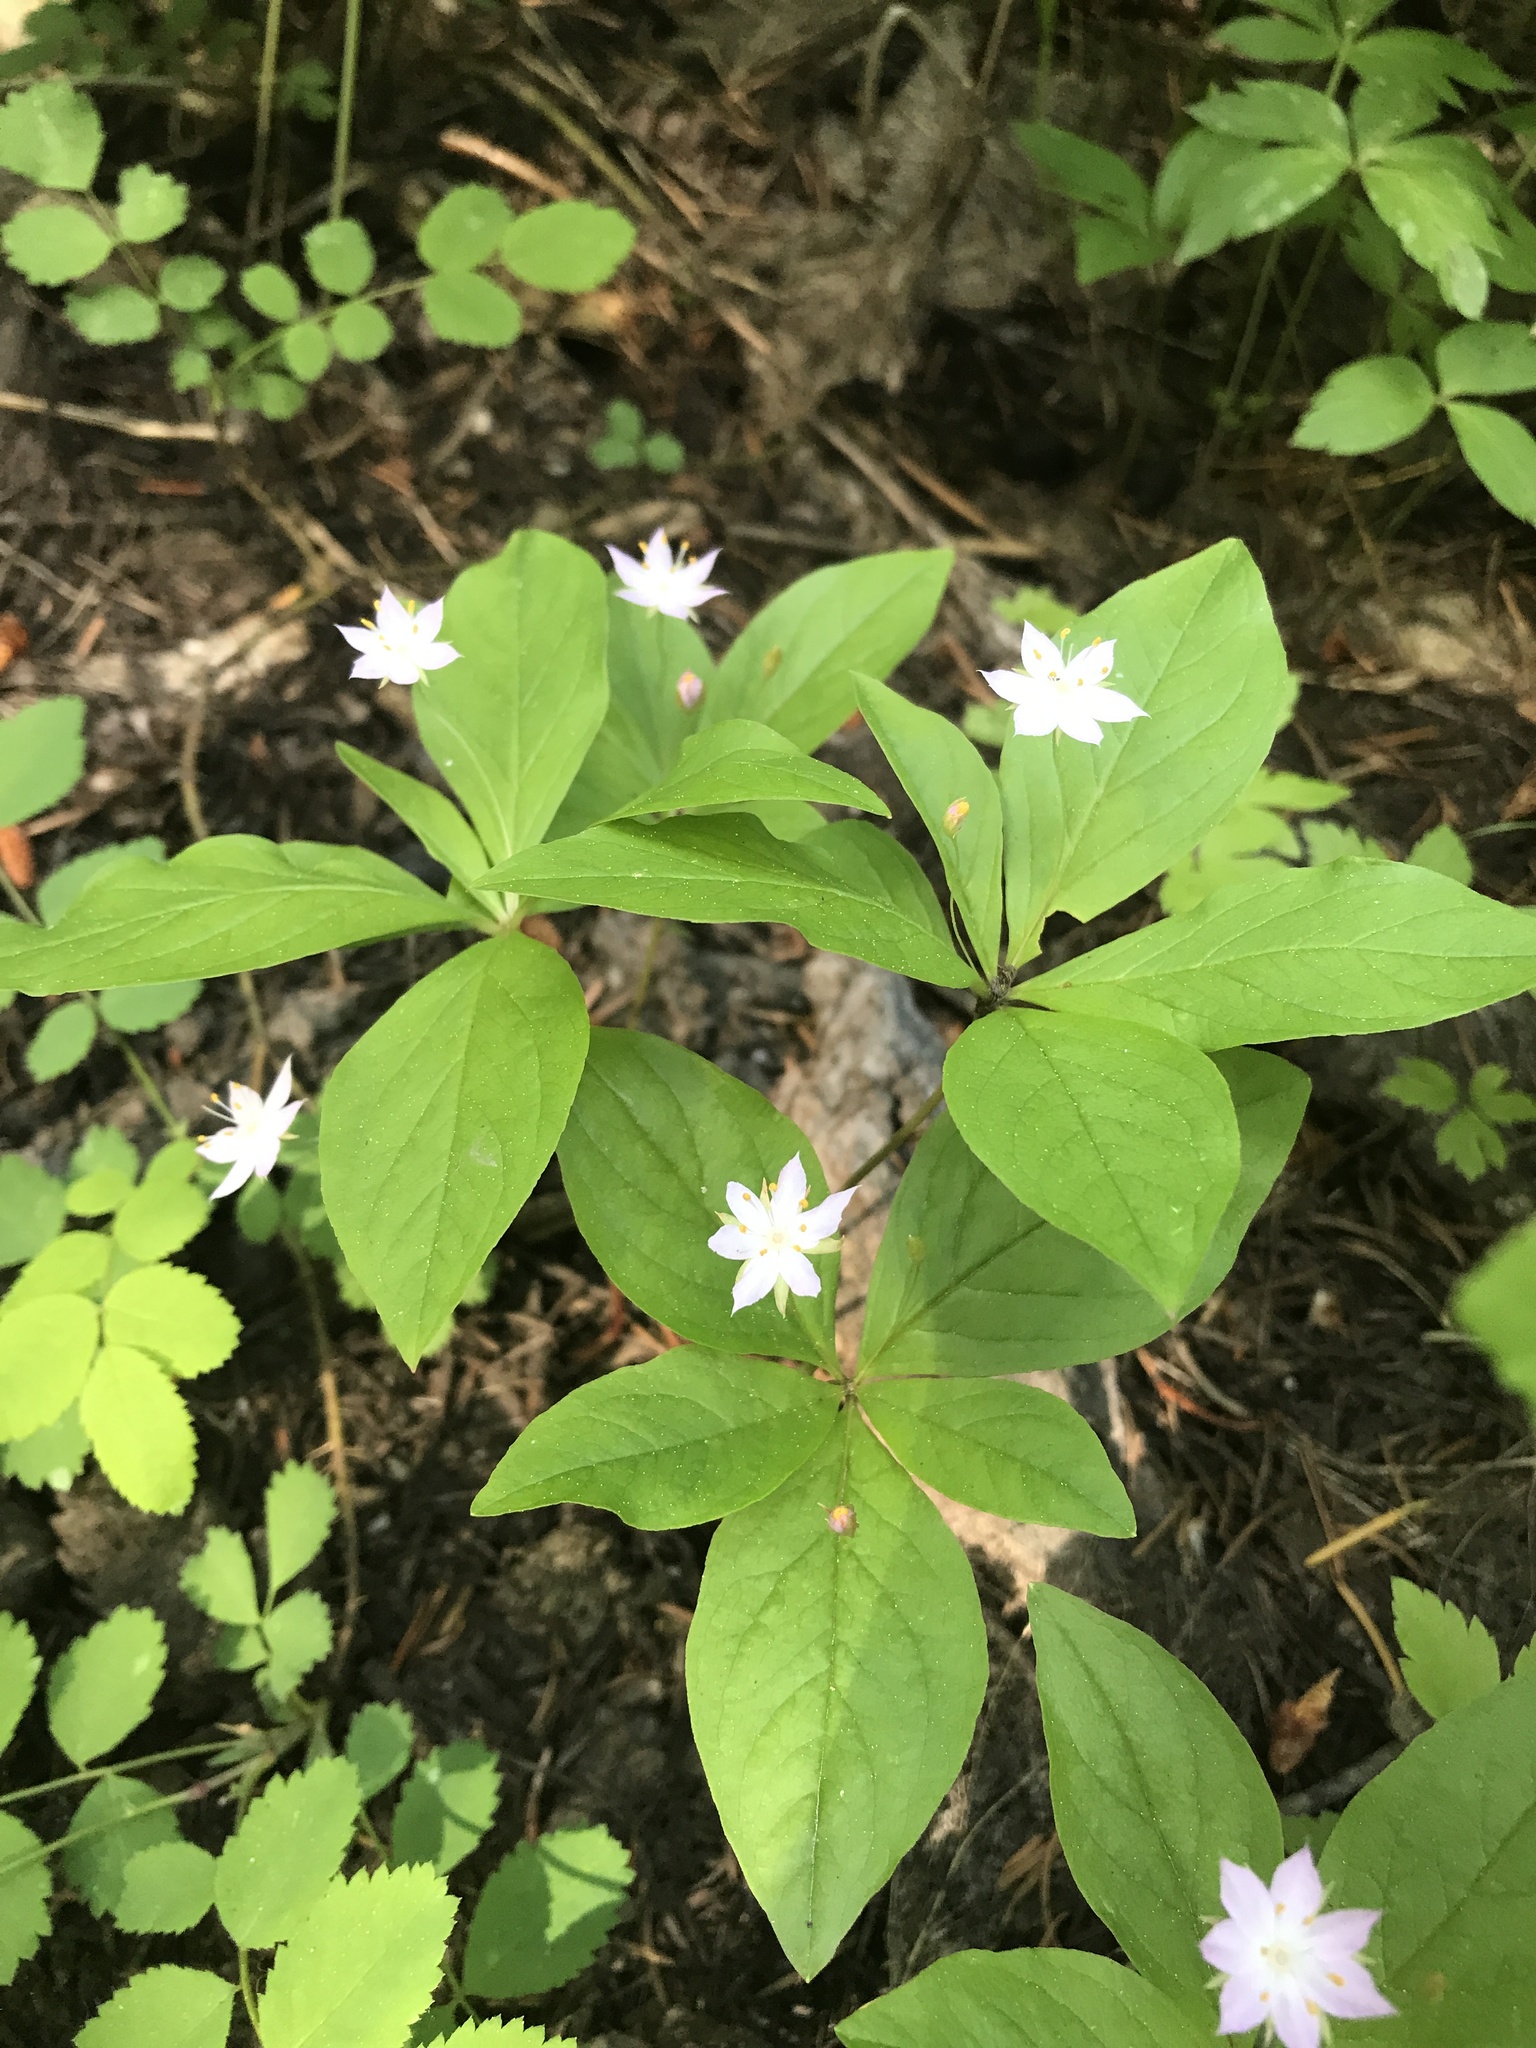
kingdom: Plantae
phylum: Tracheophyta
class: Magnoliopsida
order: Ericales
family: Primulaceae
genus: Lysimachia
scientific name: Lysimachia latifolia
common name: Pacific starflower
